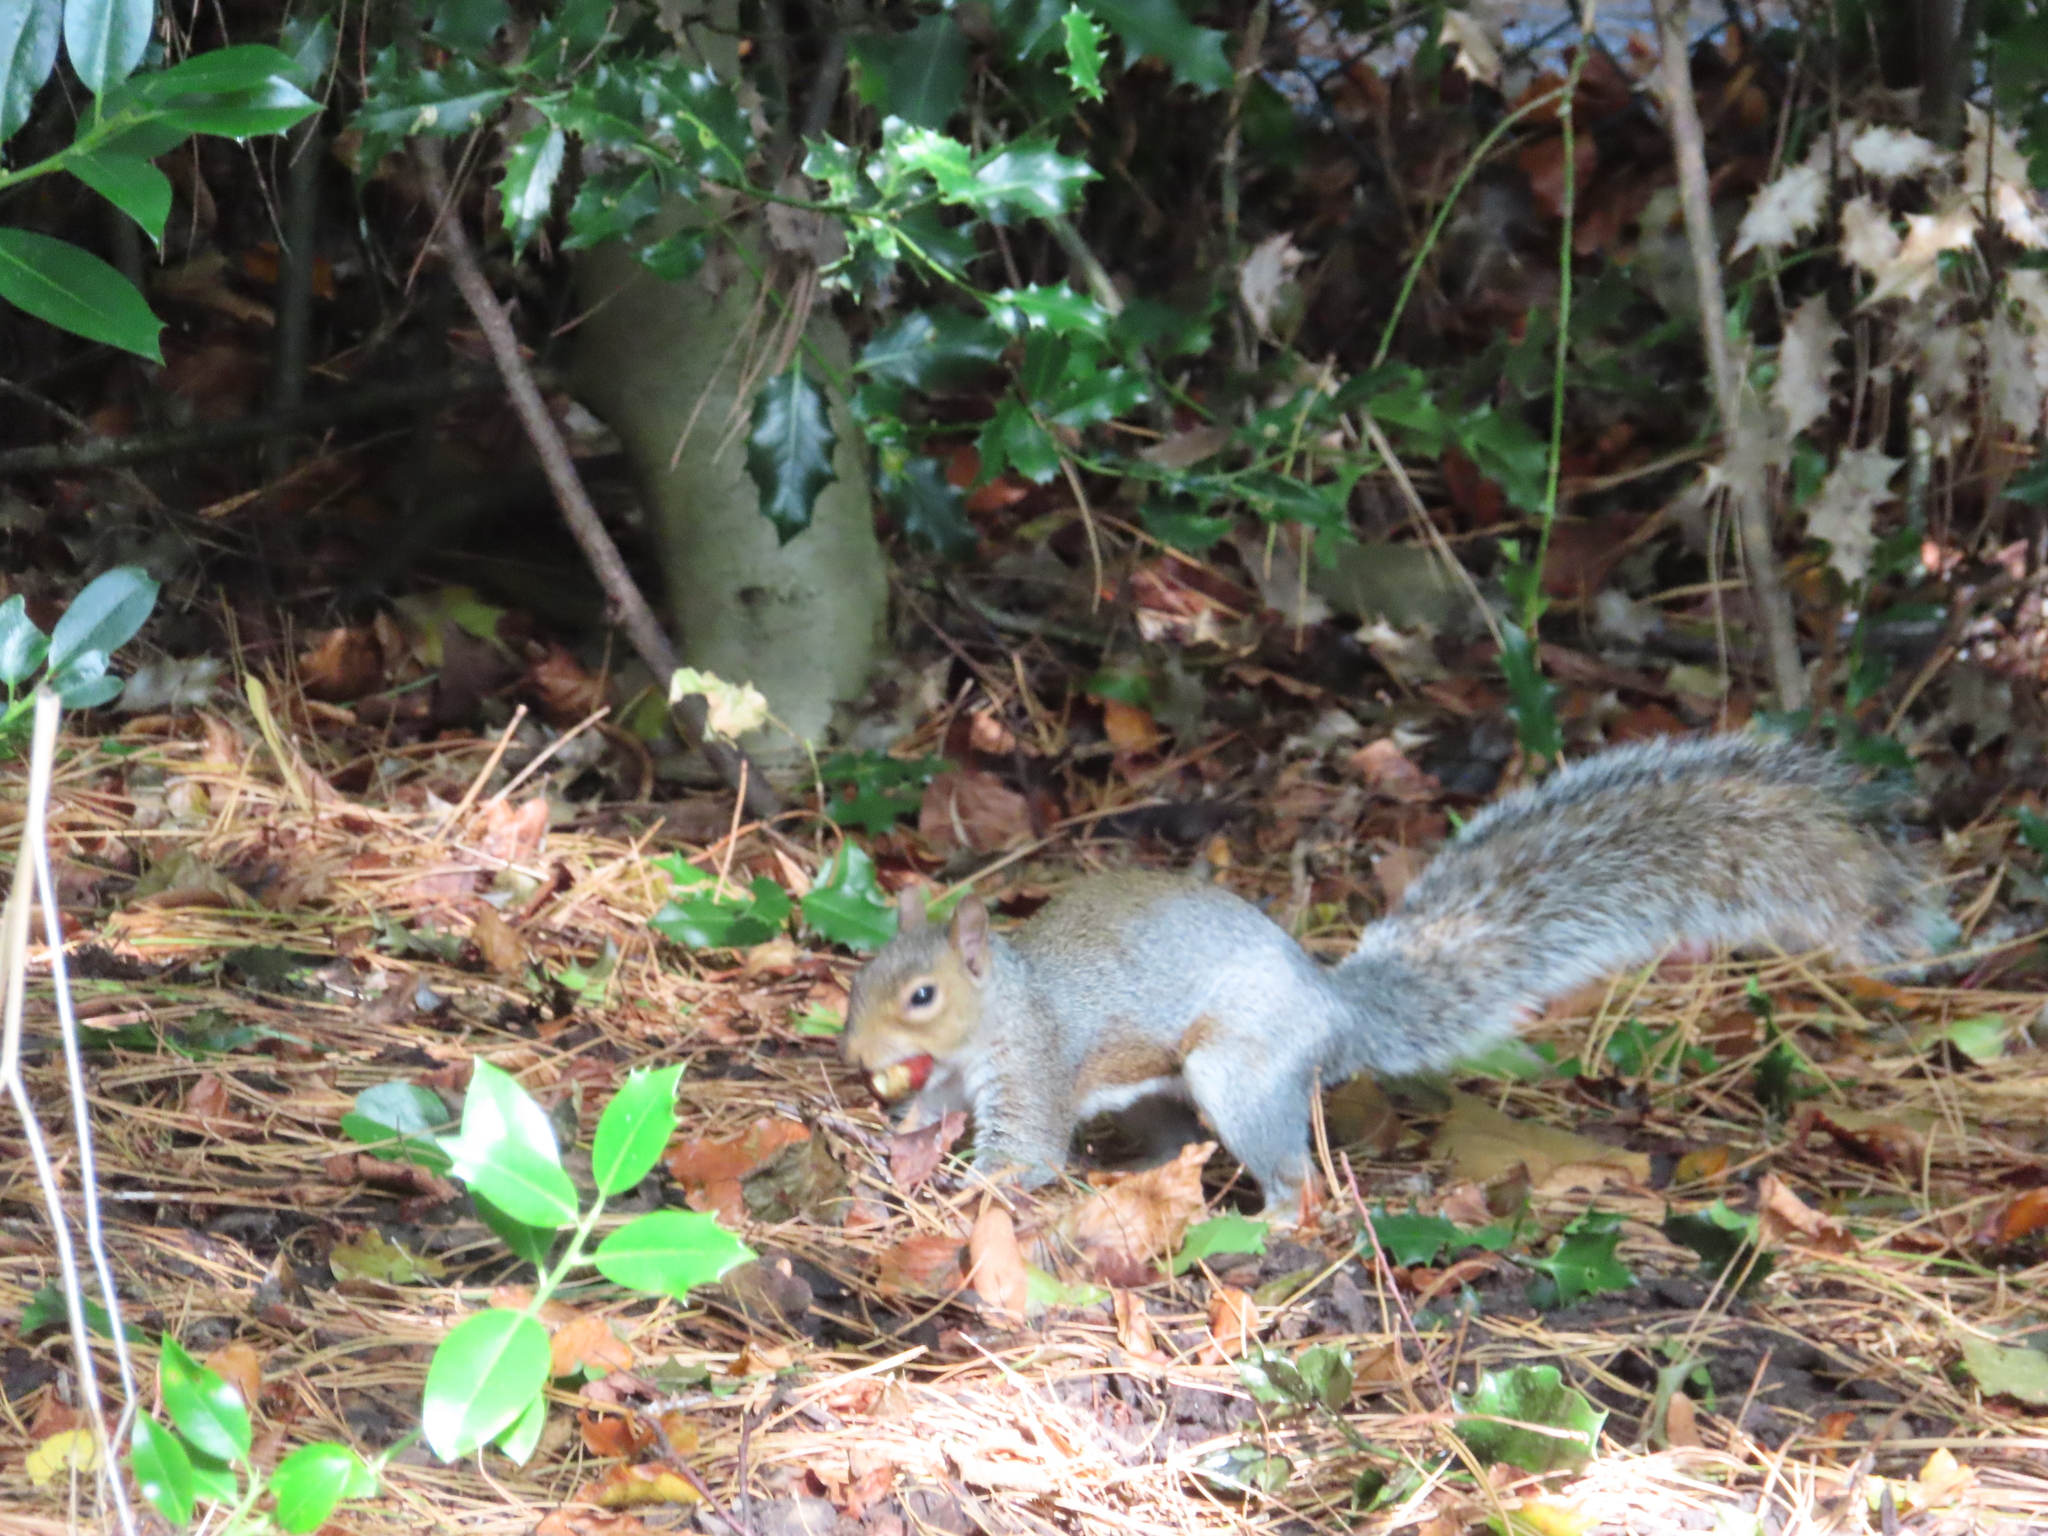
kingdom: Animalia
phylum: Chordata
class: Mammalia
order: Rodentia
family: Sciuridae
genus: Sciurus
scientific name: Sciurus carolinensis
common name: Eastern gray squirrel
